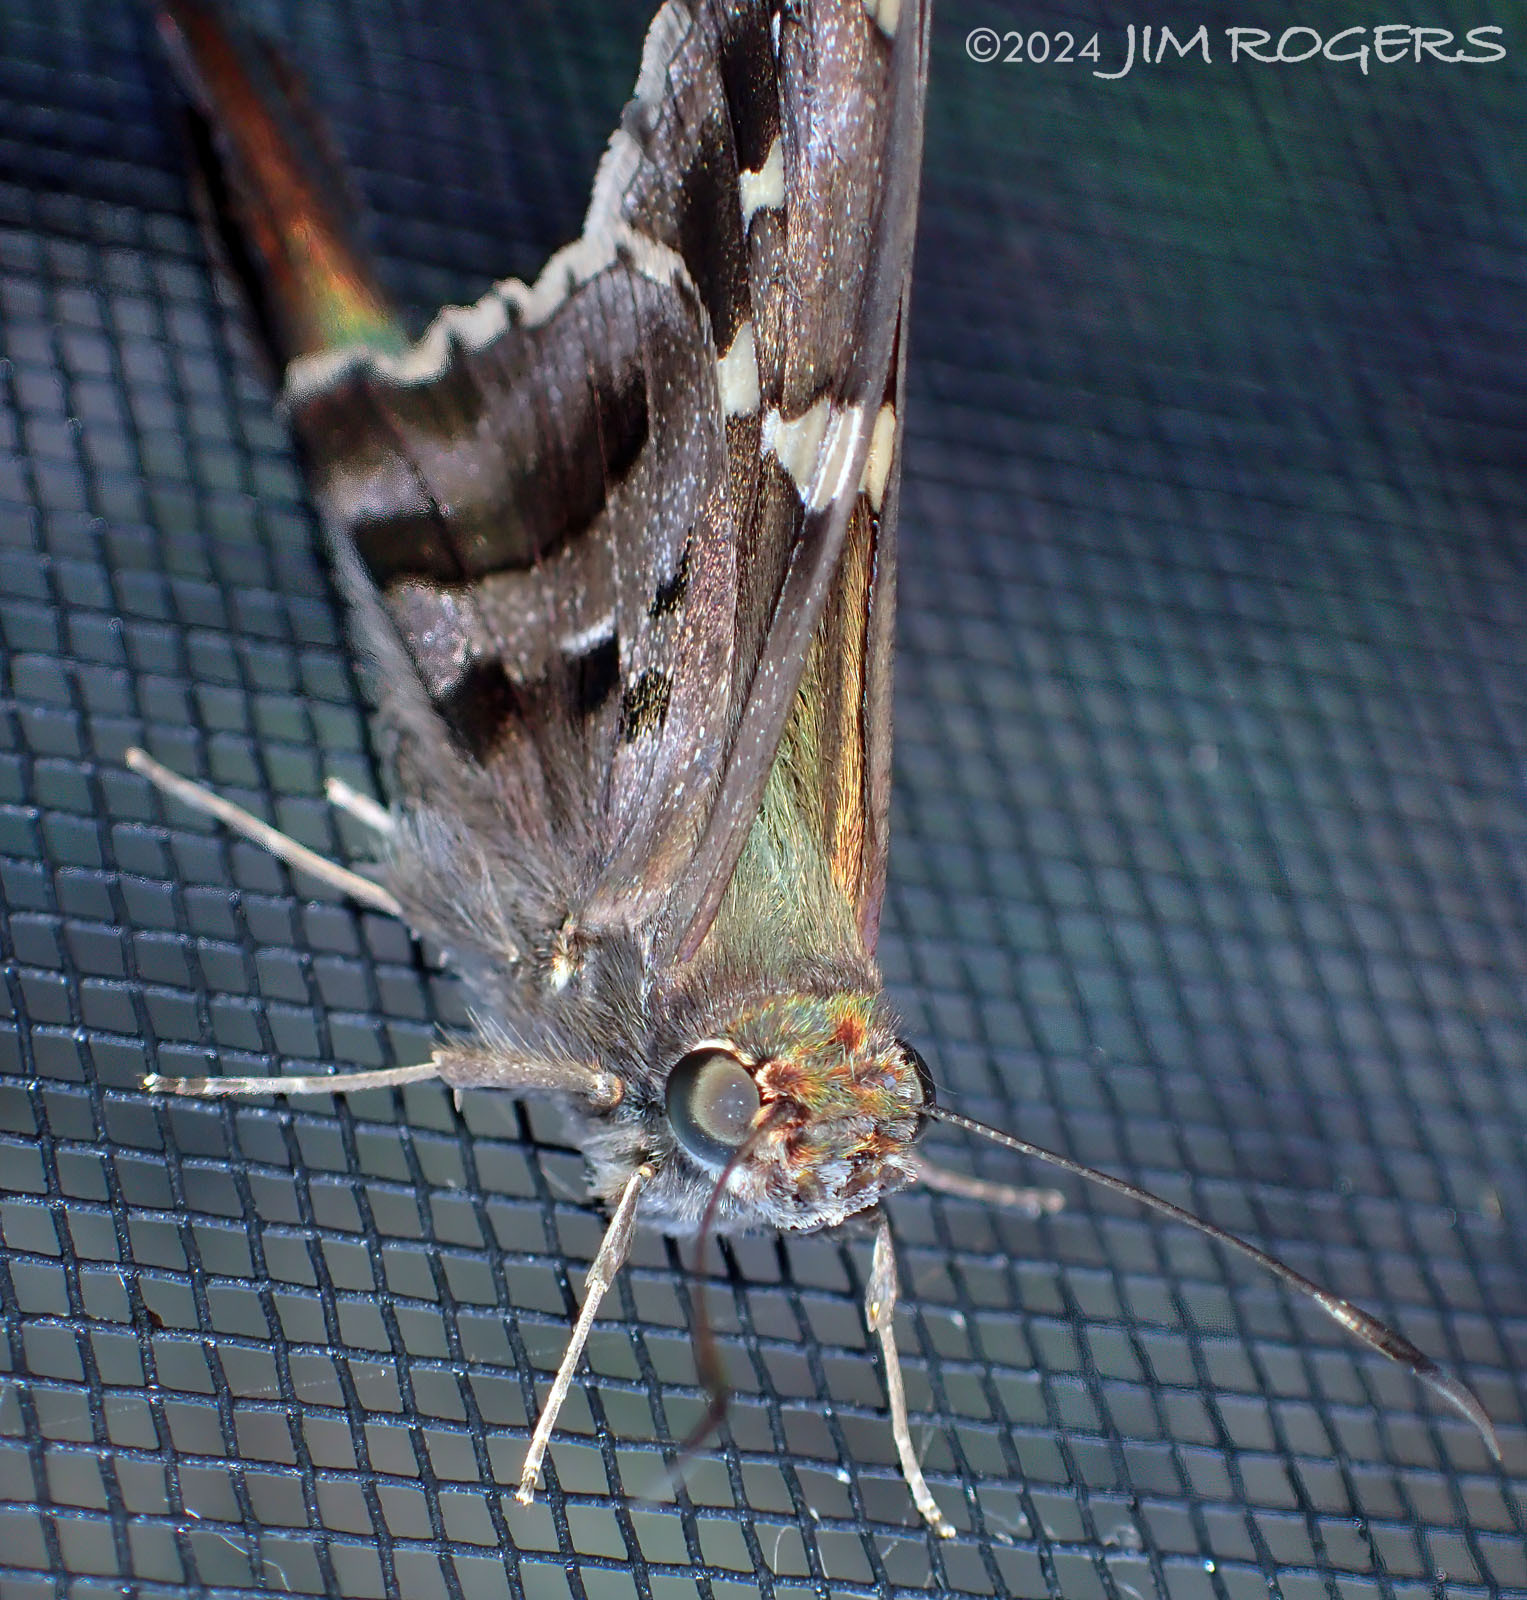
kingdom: Animalia
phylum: Arthropoda
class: Insecta
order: Lepidoptera
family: Hesperiidae
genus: Urbanus
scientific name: Urbanus proteus
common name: Long-tailed skipper
